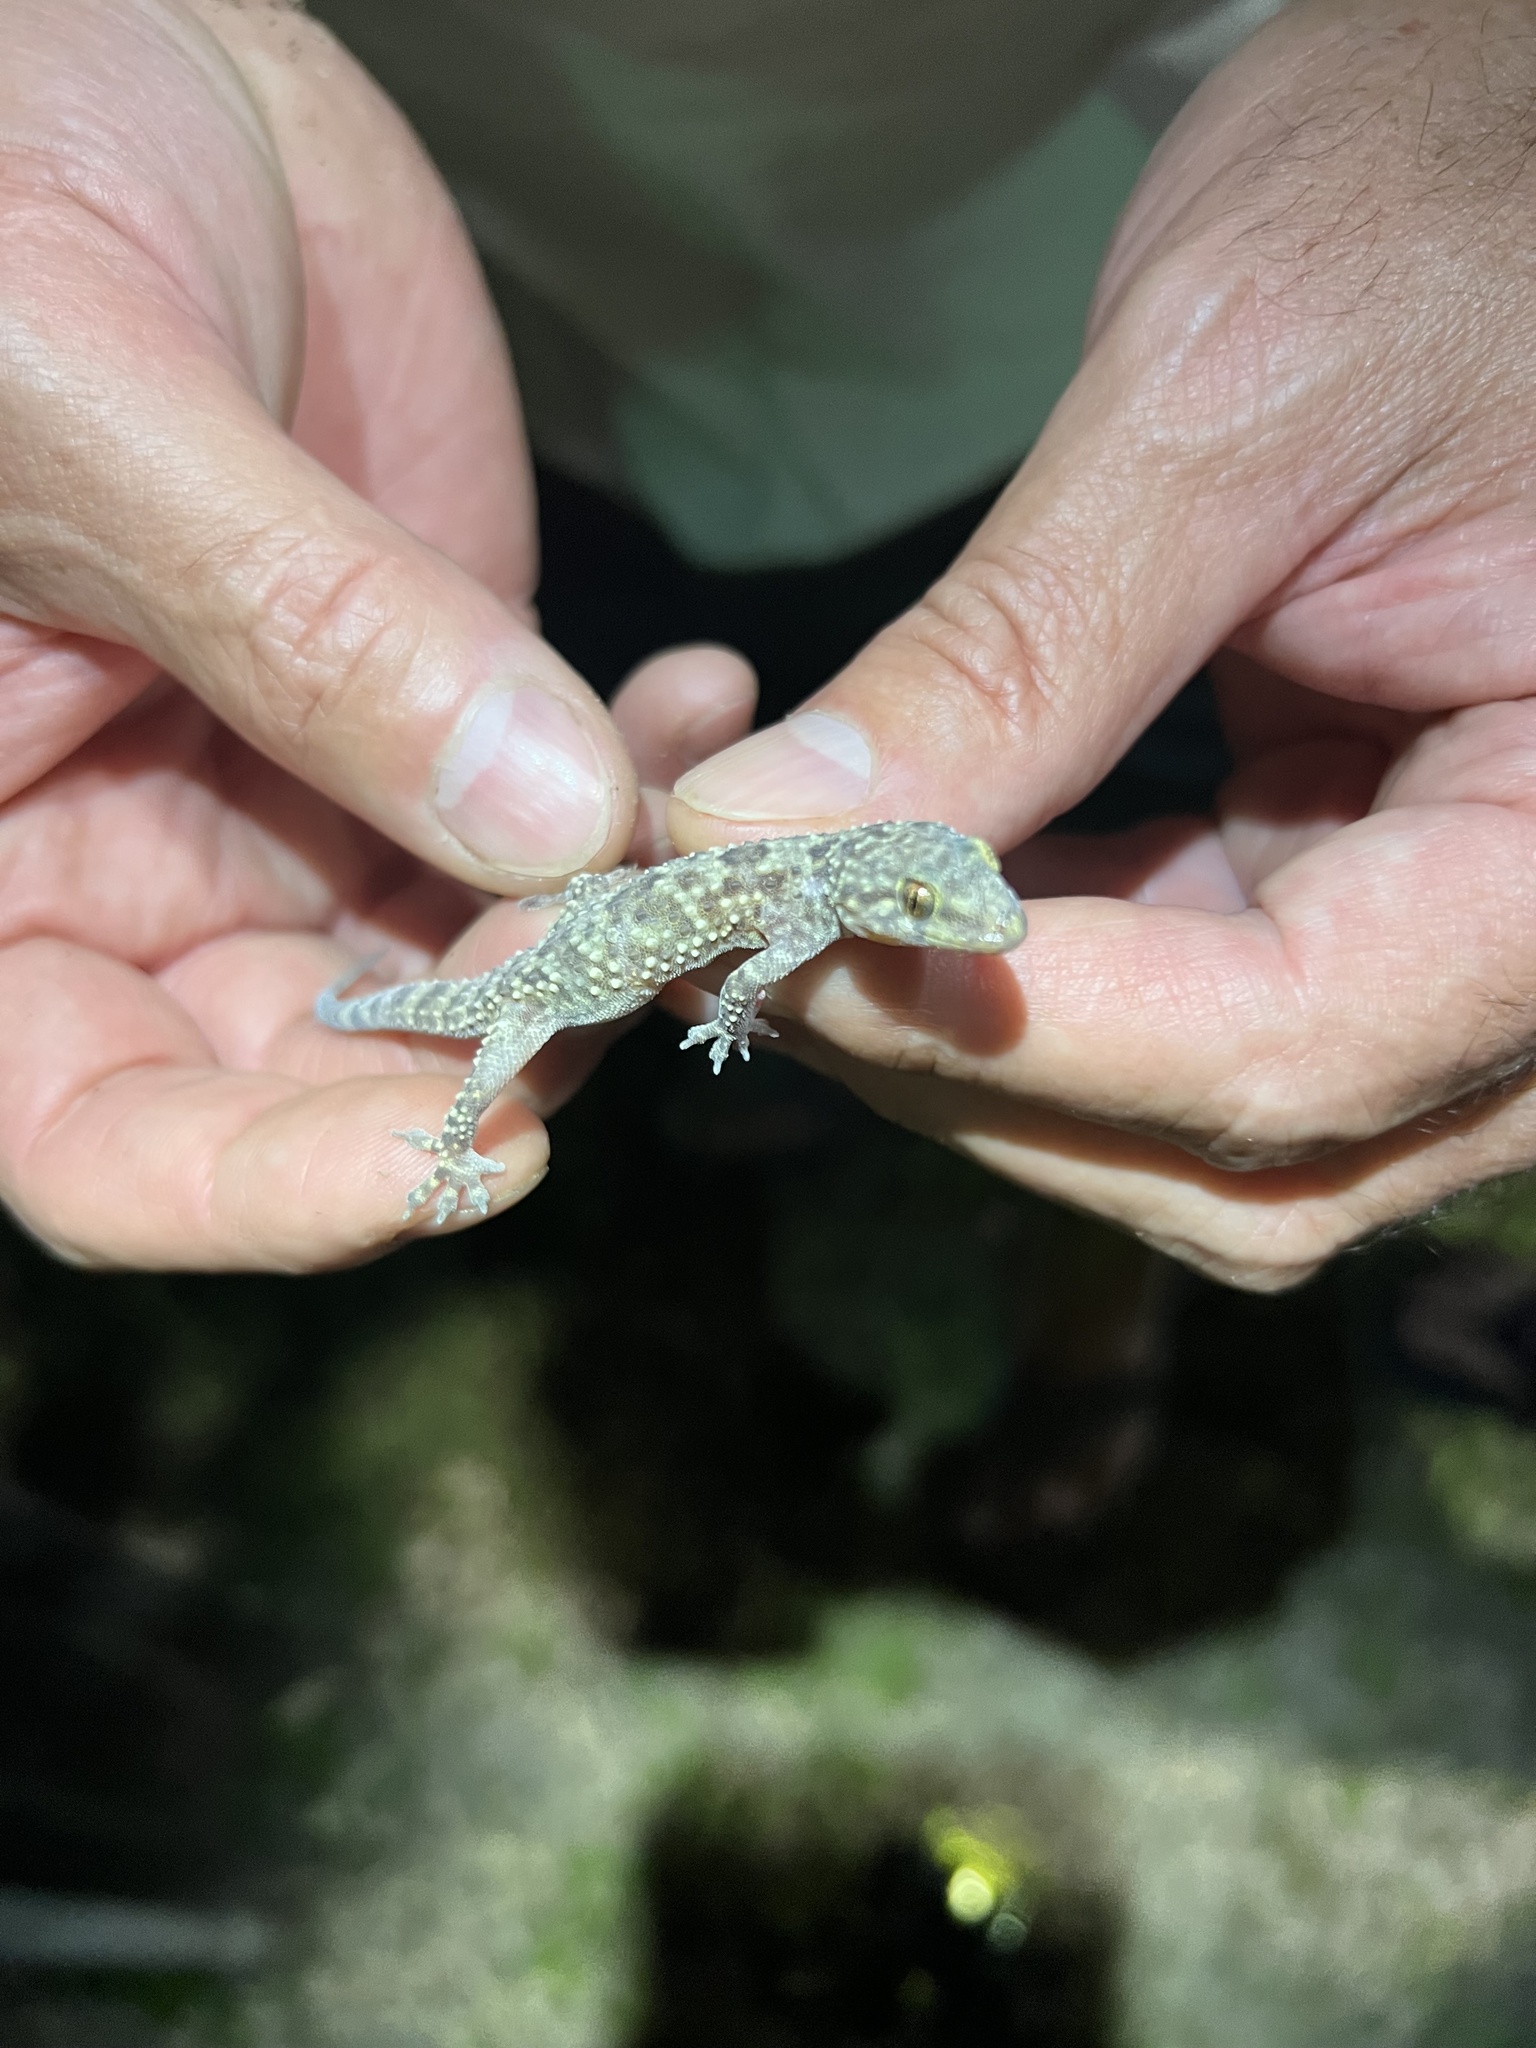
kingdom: Animalia
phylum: Chordata
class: Squamata
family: Gekkonidae
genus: Hemidactylus
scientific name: Hemidactylus turcicus
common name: Turkish gecko
